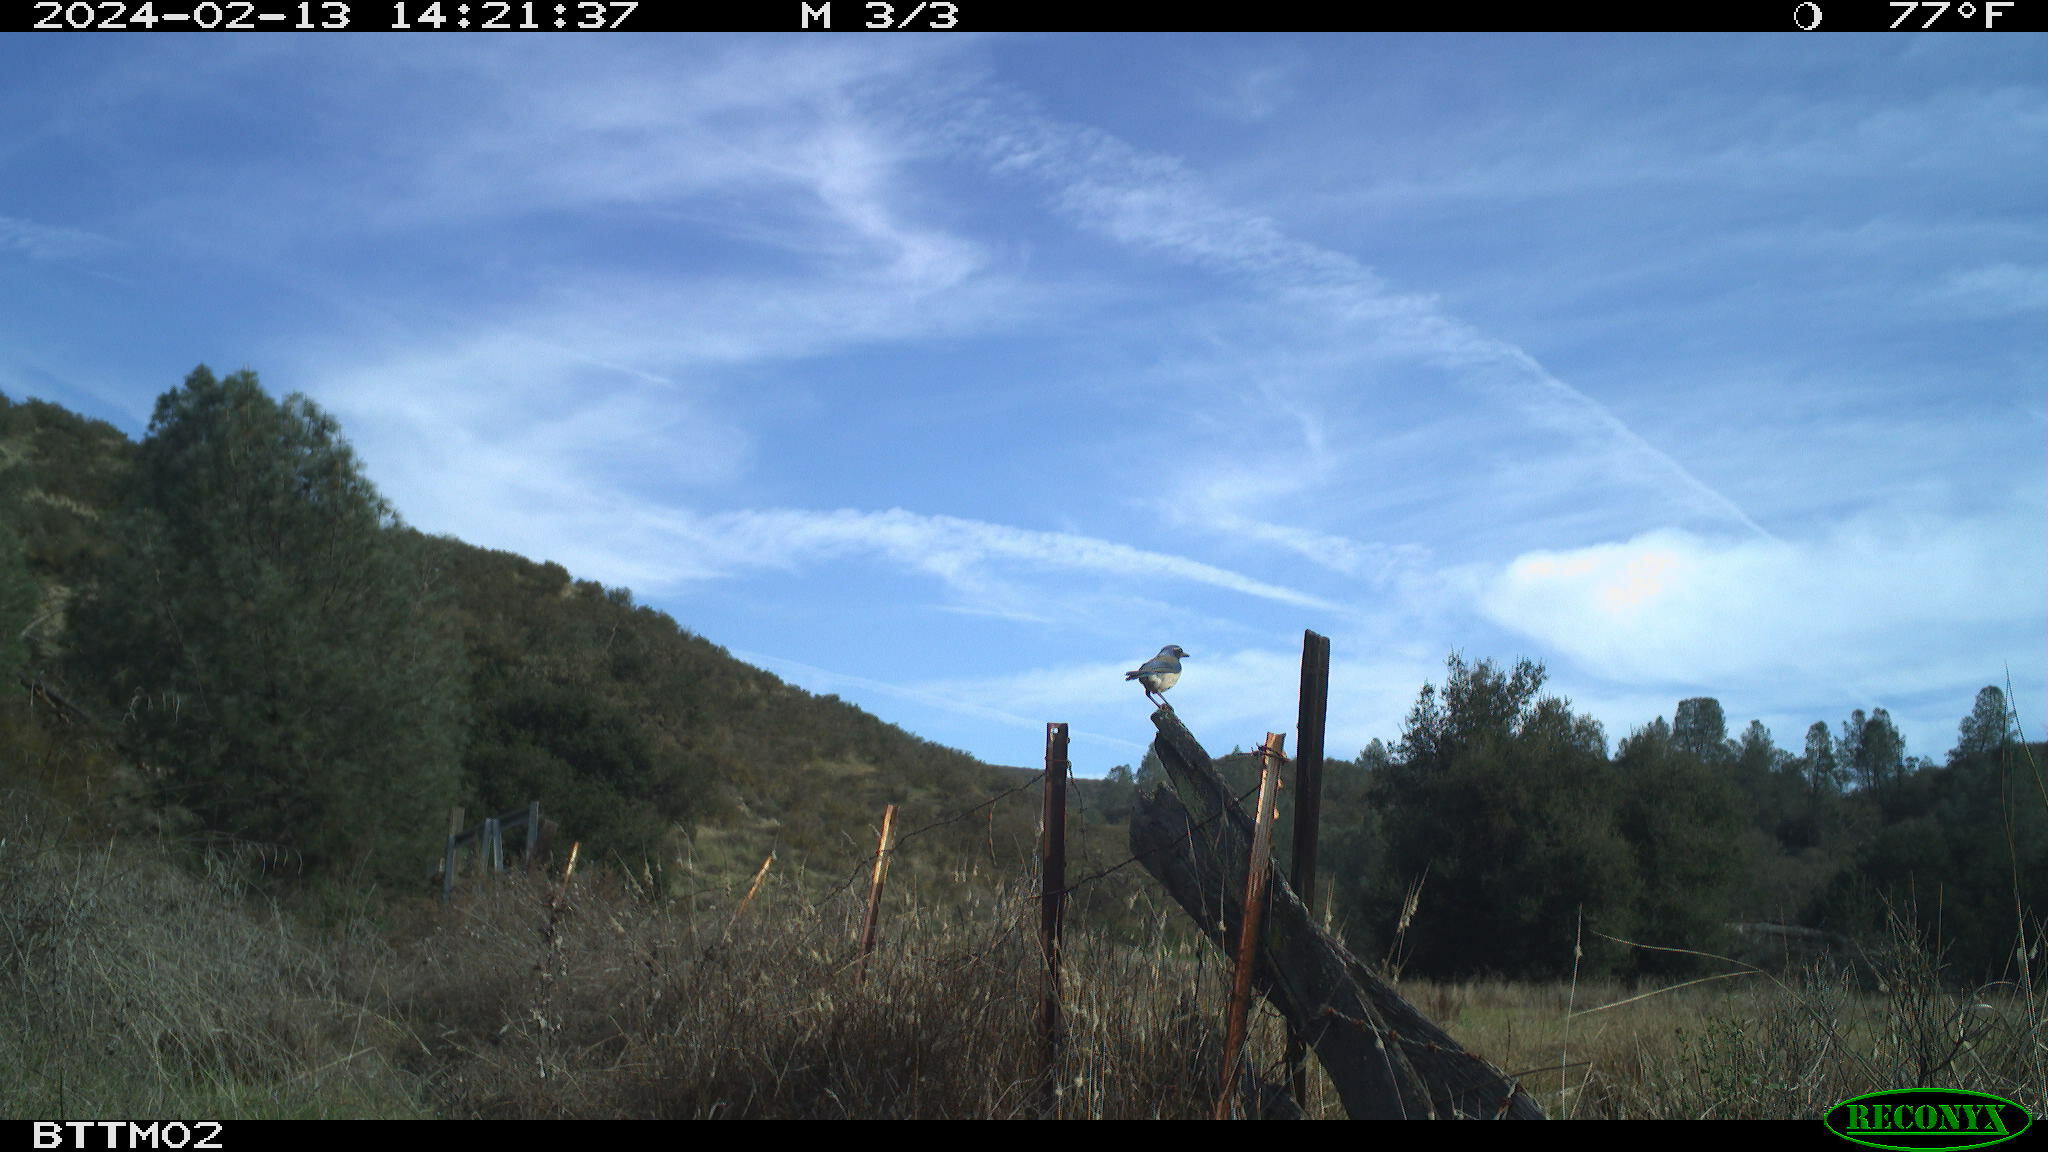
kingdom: Animalia
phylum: Chordata
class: Aves
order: Passeriformes
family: Corvidae
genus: Aphelocoma
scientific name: Aphelocoma californica
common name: California scrub-jay
